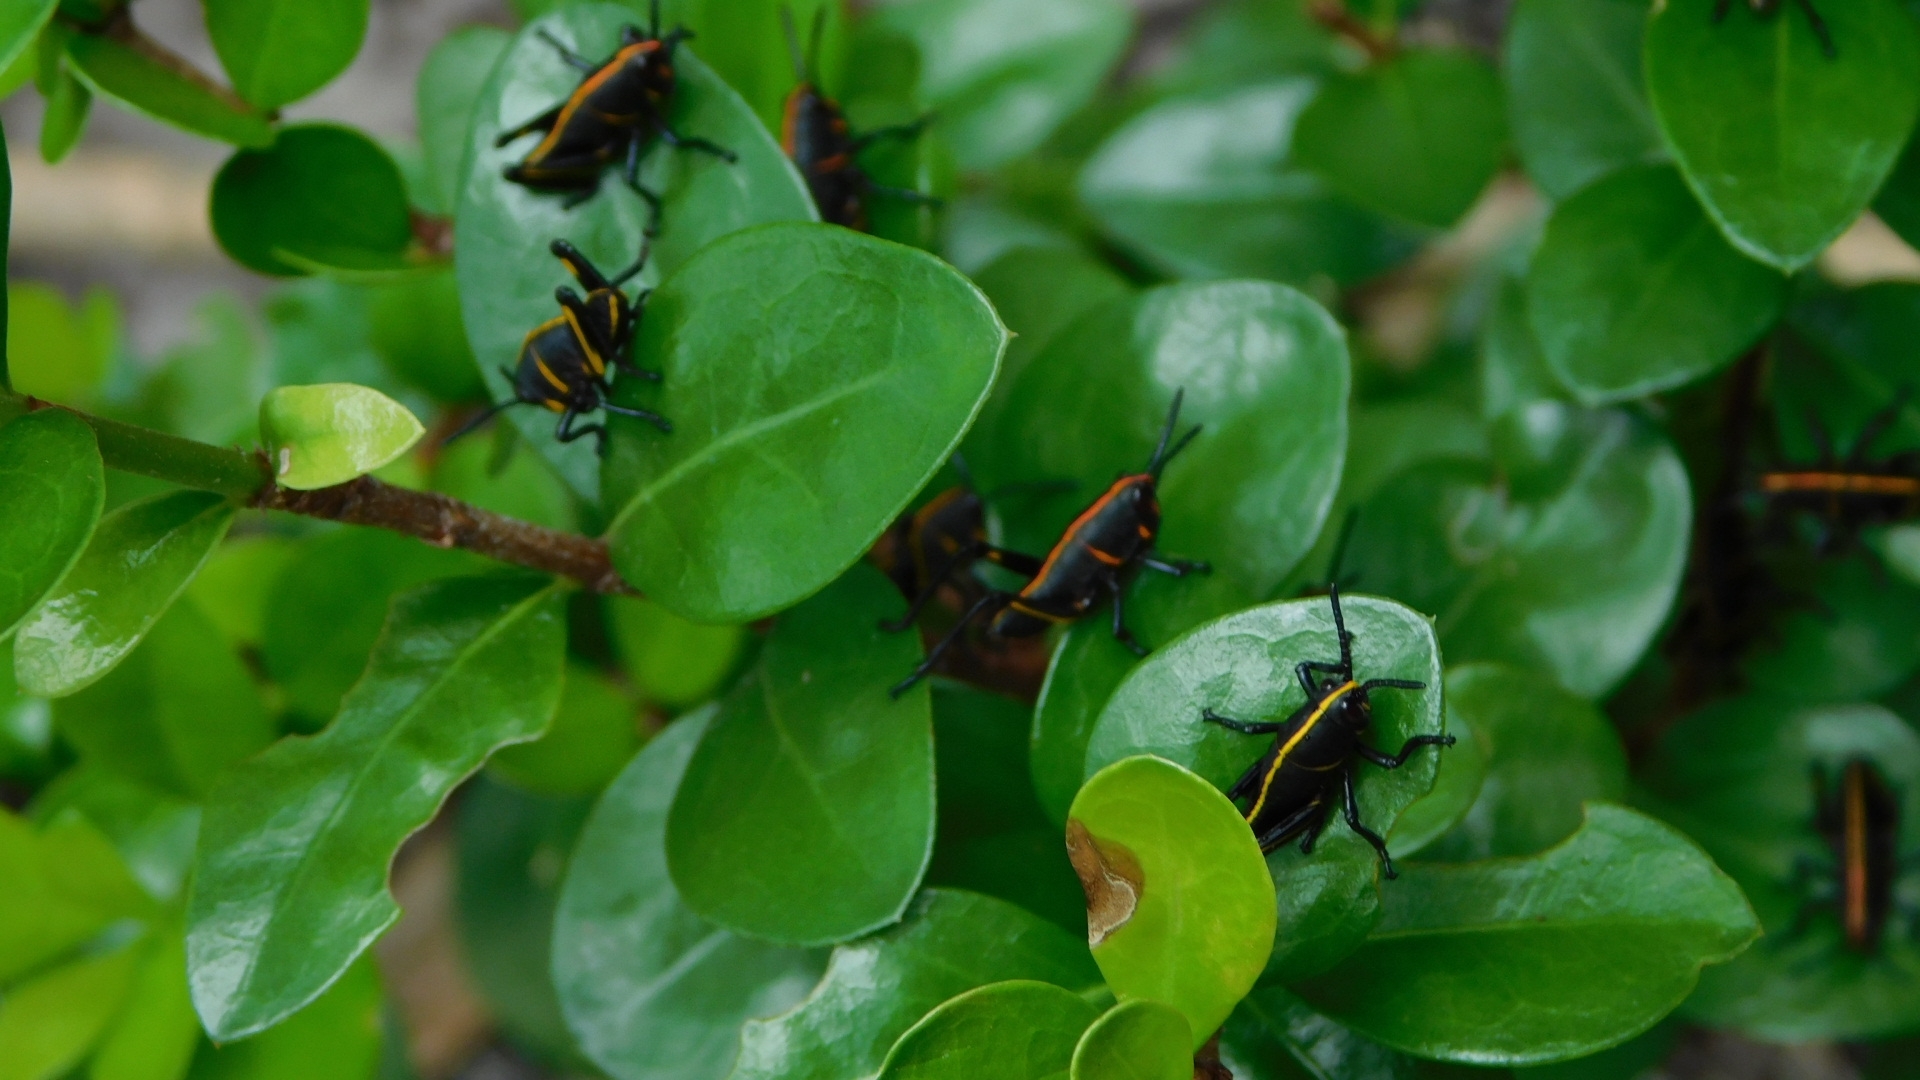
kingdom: Animalia
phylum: Arthropoda
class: Insecta
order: Orthoptera
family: Romaleidae
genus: Romalea
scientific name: Romalea microptera
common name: Eastern lubber grasshopper
